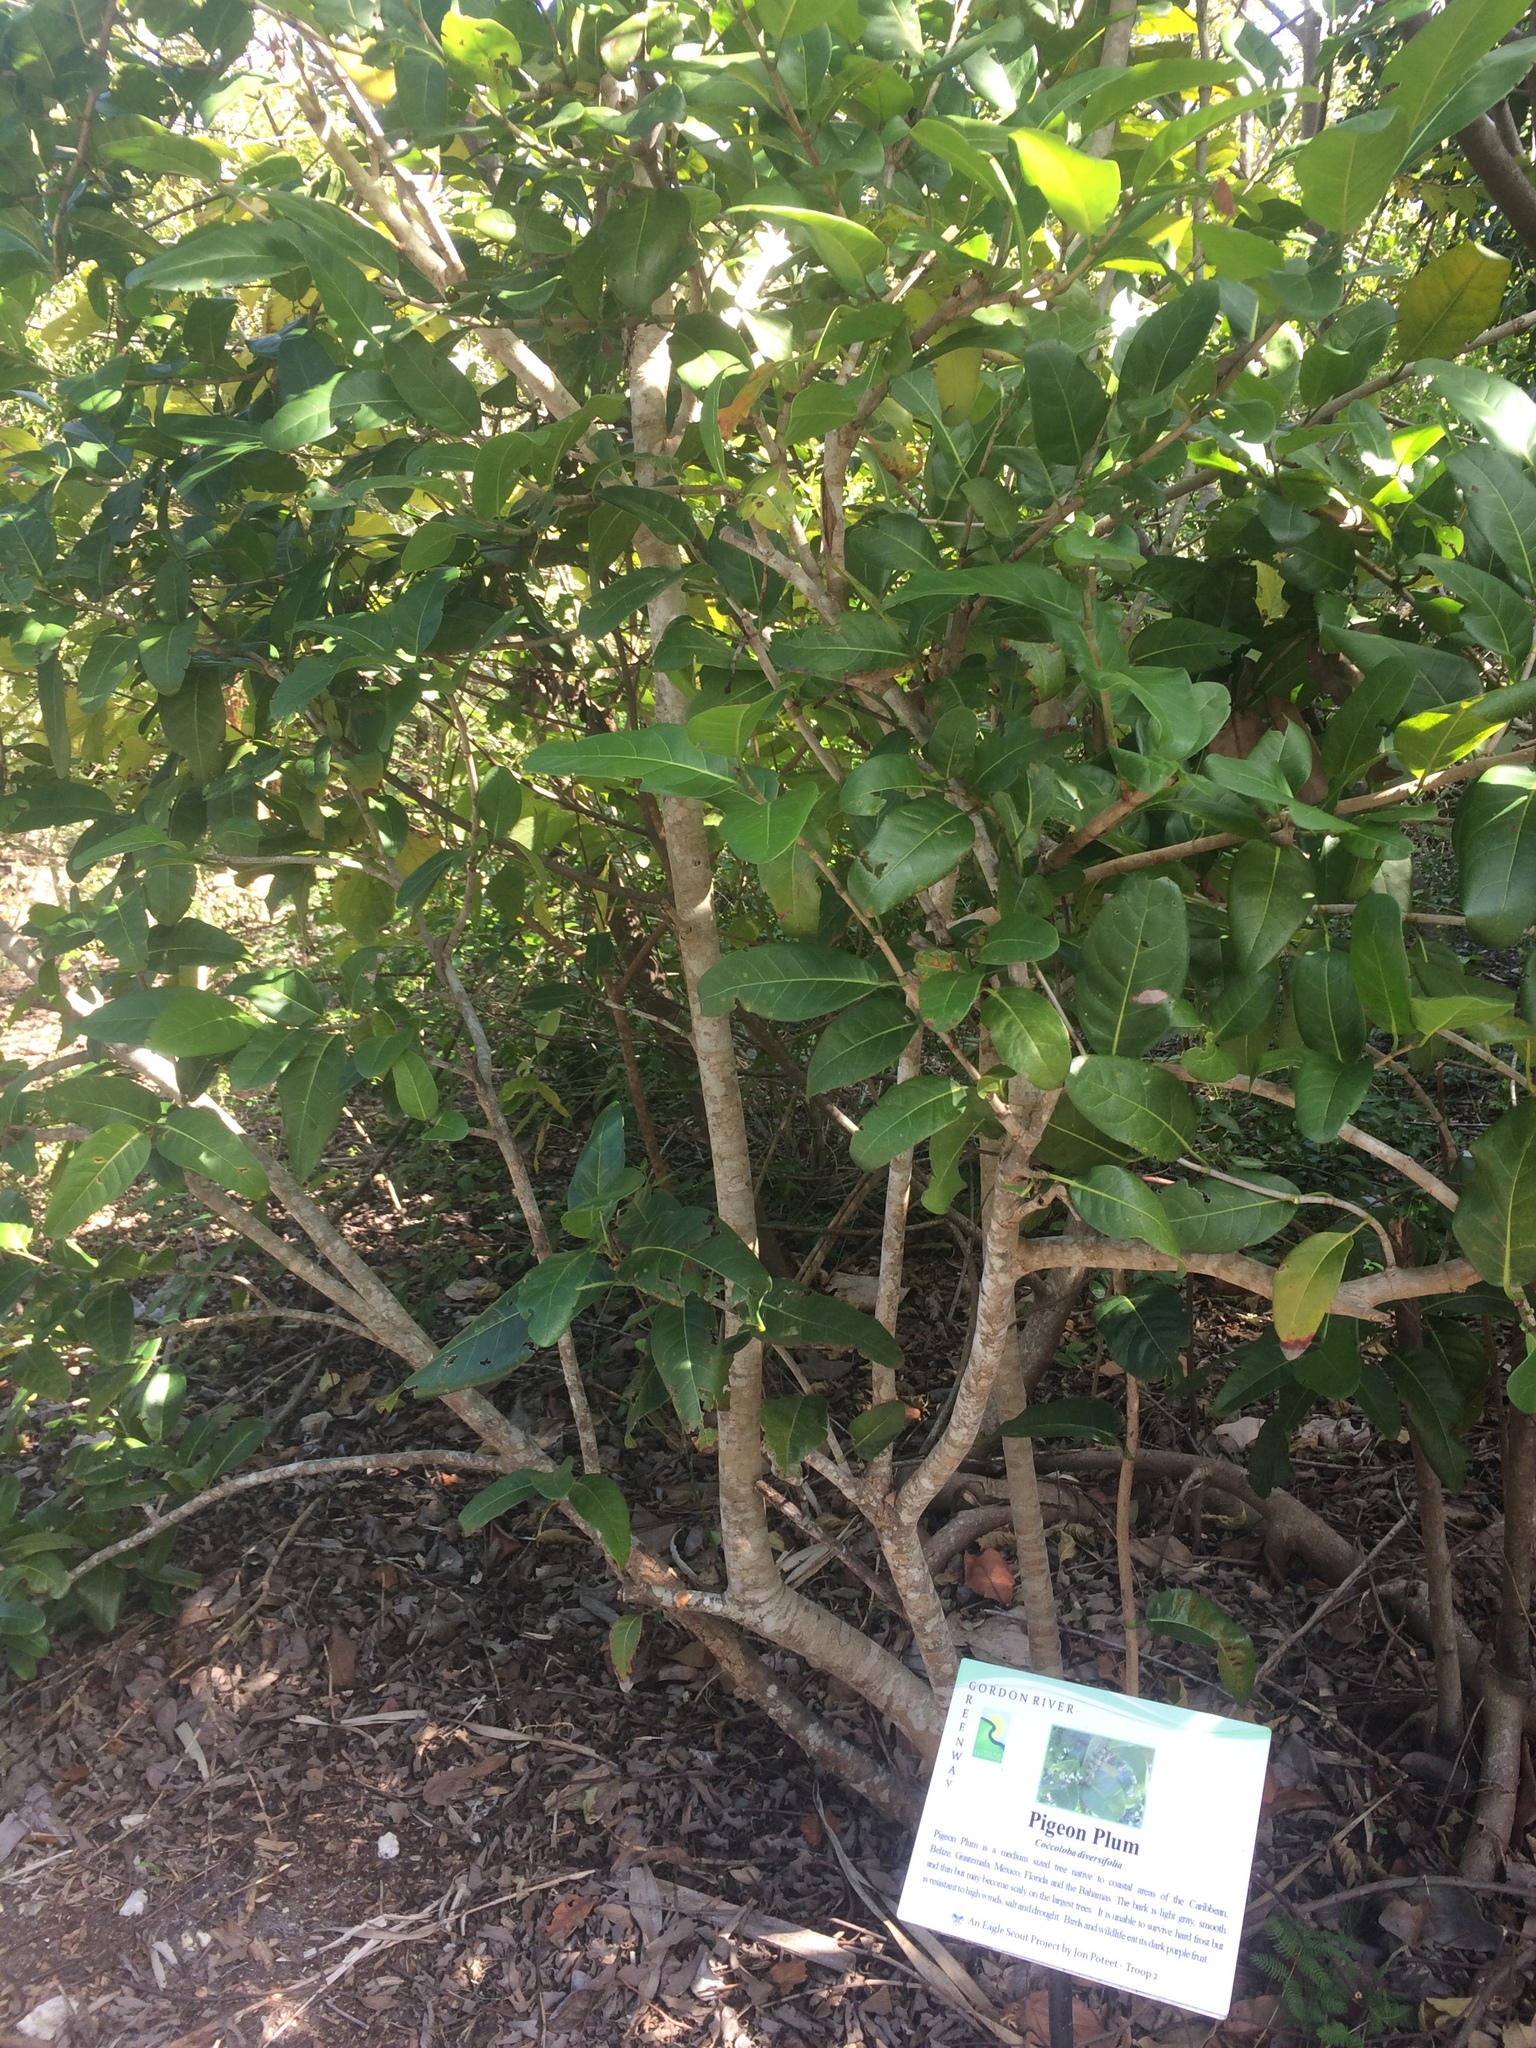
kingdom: Plantae
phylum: Tracheophyta
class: Magnoliopsida
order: Caryophyllales
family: Polygonaceae
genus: Coccoloba
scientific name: Coccoloba diversifolia
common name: Pigeon-plum
